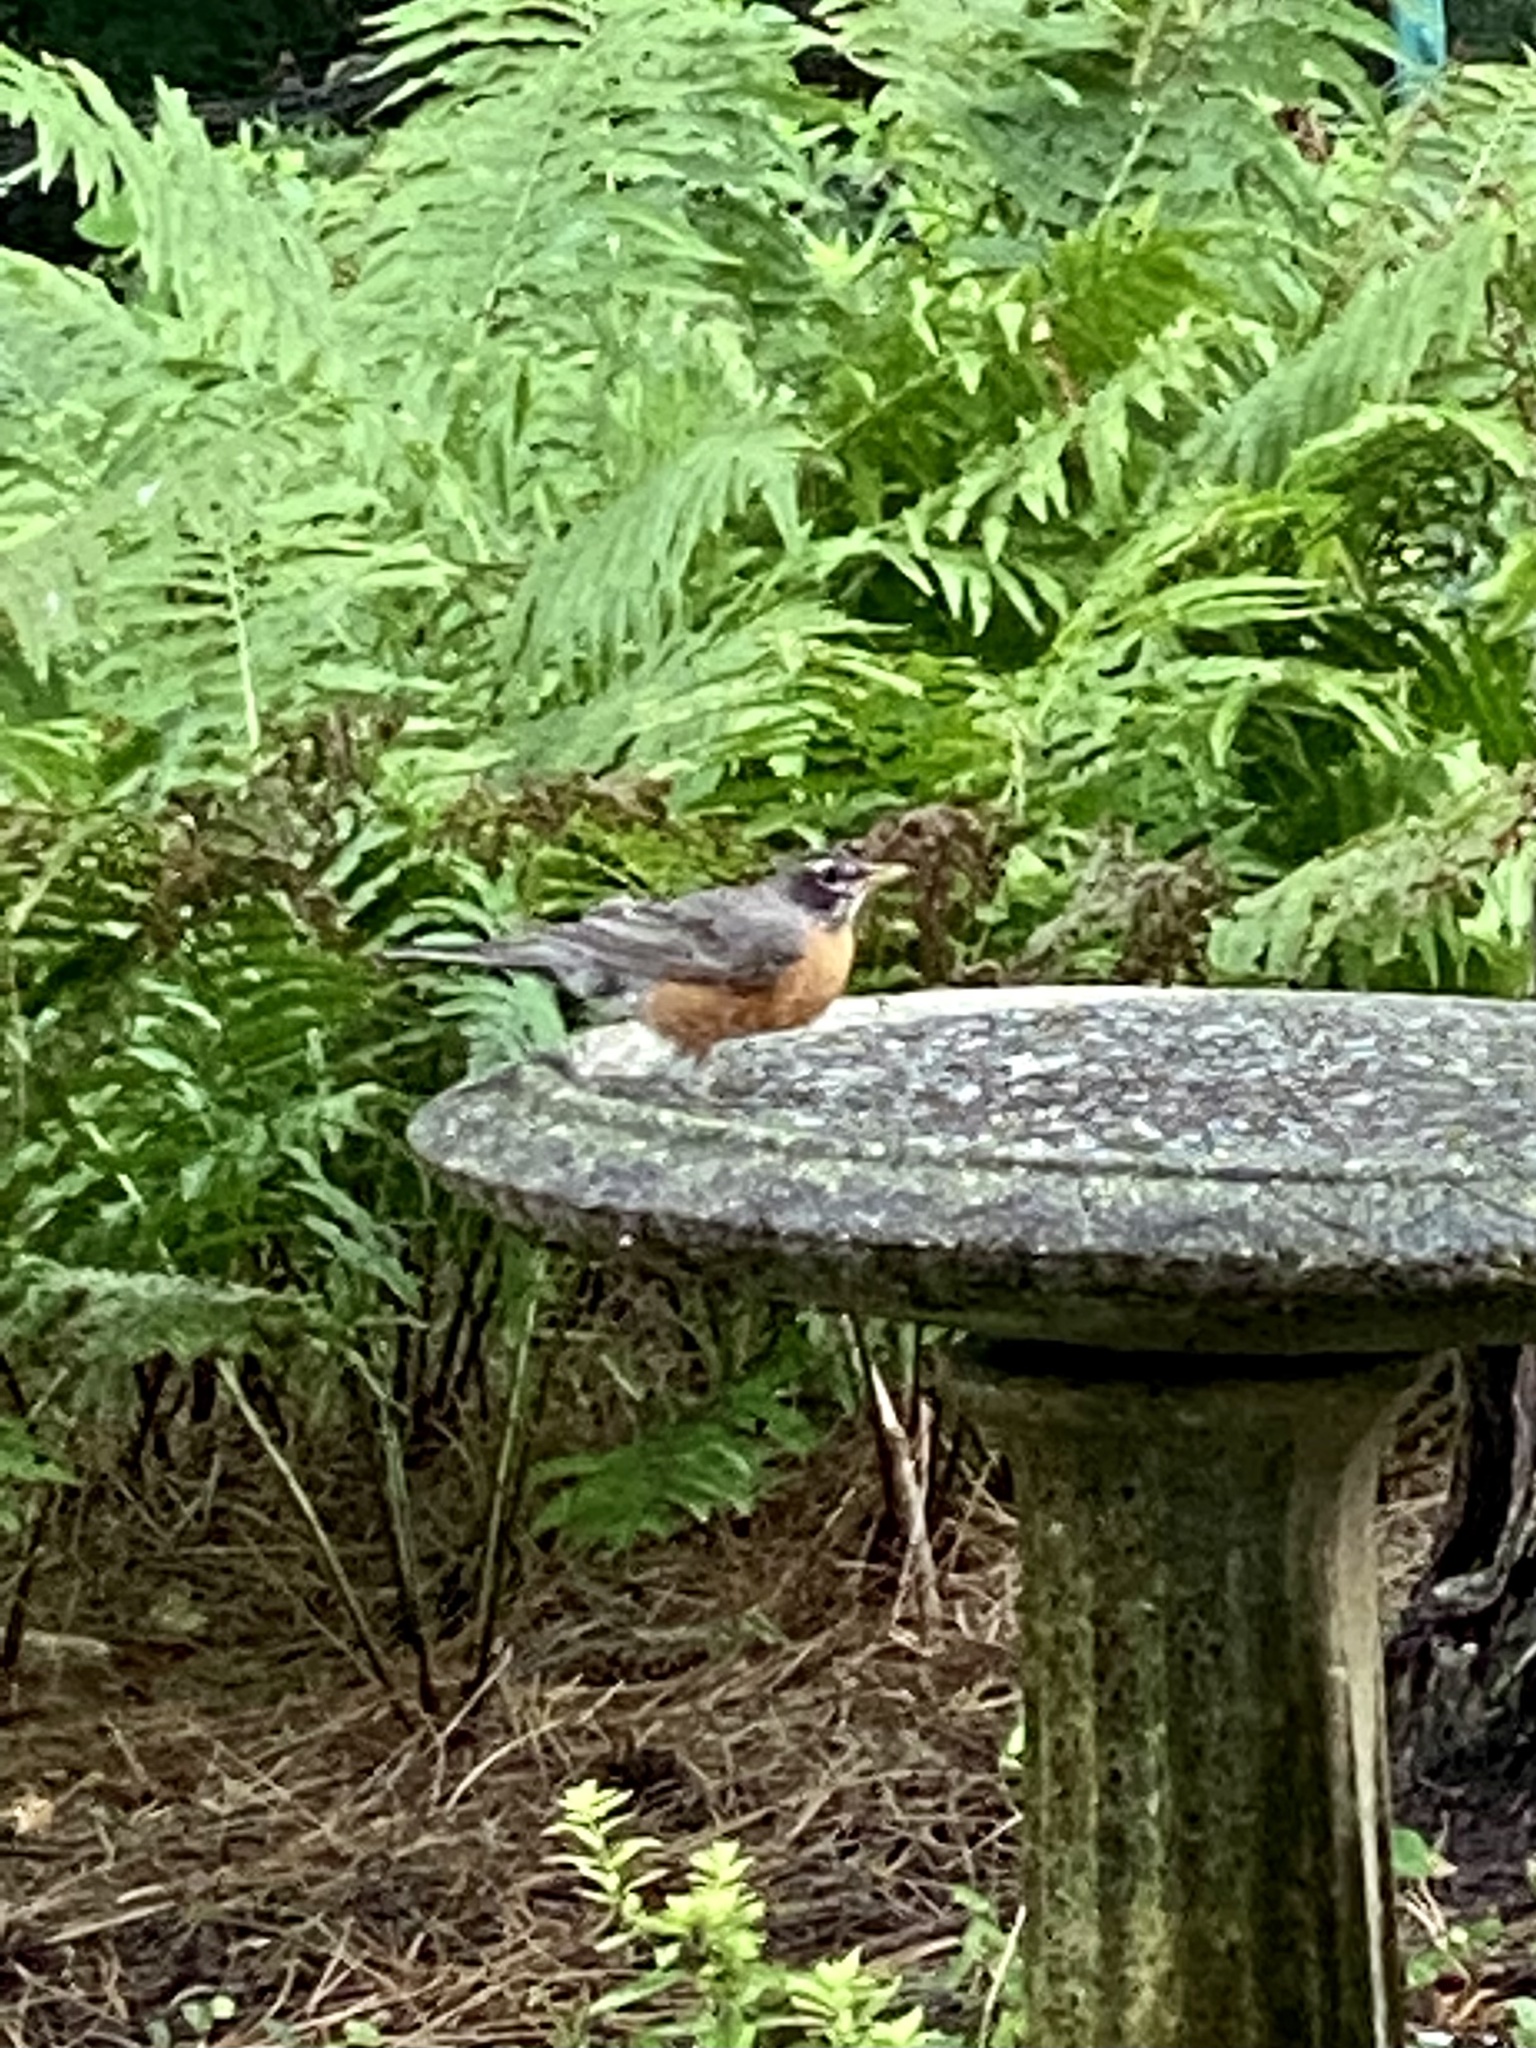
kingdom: Animalia
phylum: Chordata
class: Aves
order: Passeriformes
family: Turdidae
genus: Turdus
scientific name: Turdus migratorius
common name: American robin
